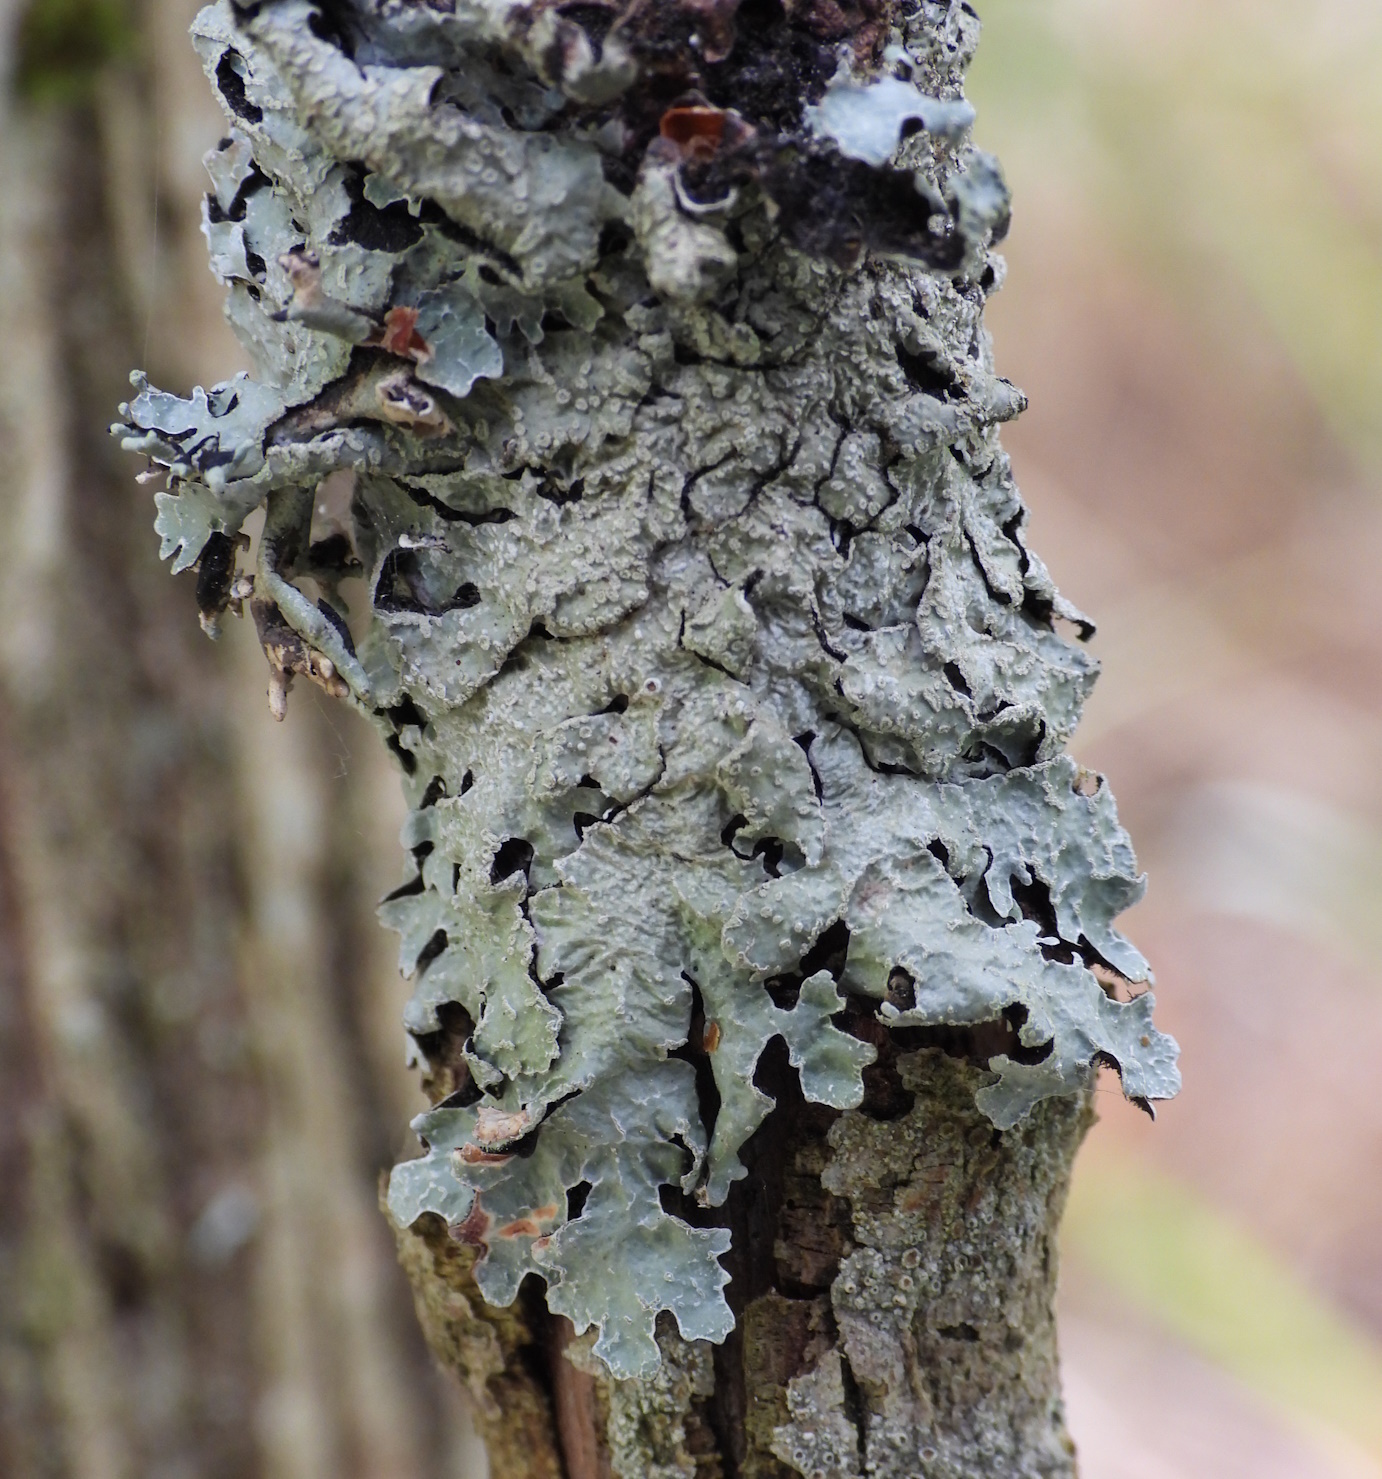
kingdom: Fungi
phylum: Ascomycota
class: Lecanoromycetes
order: Lecanorales
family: Parmeliaceae
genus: Parmelia
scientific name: Parmelia sulcata
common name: Netted shield lichen
